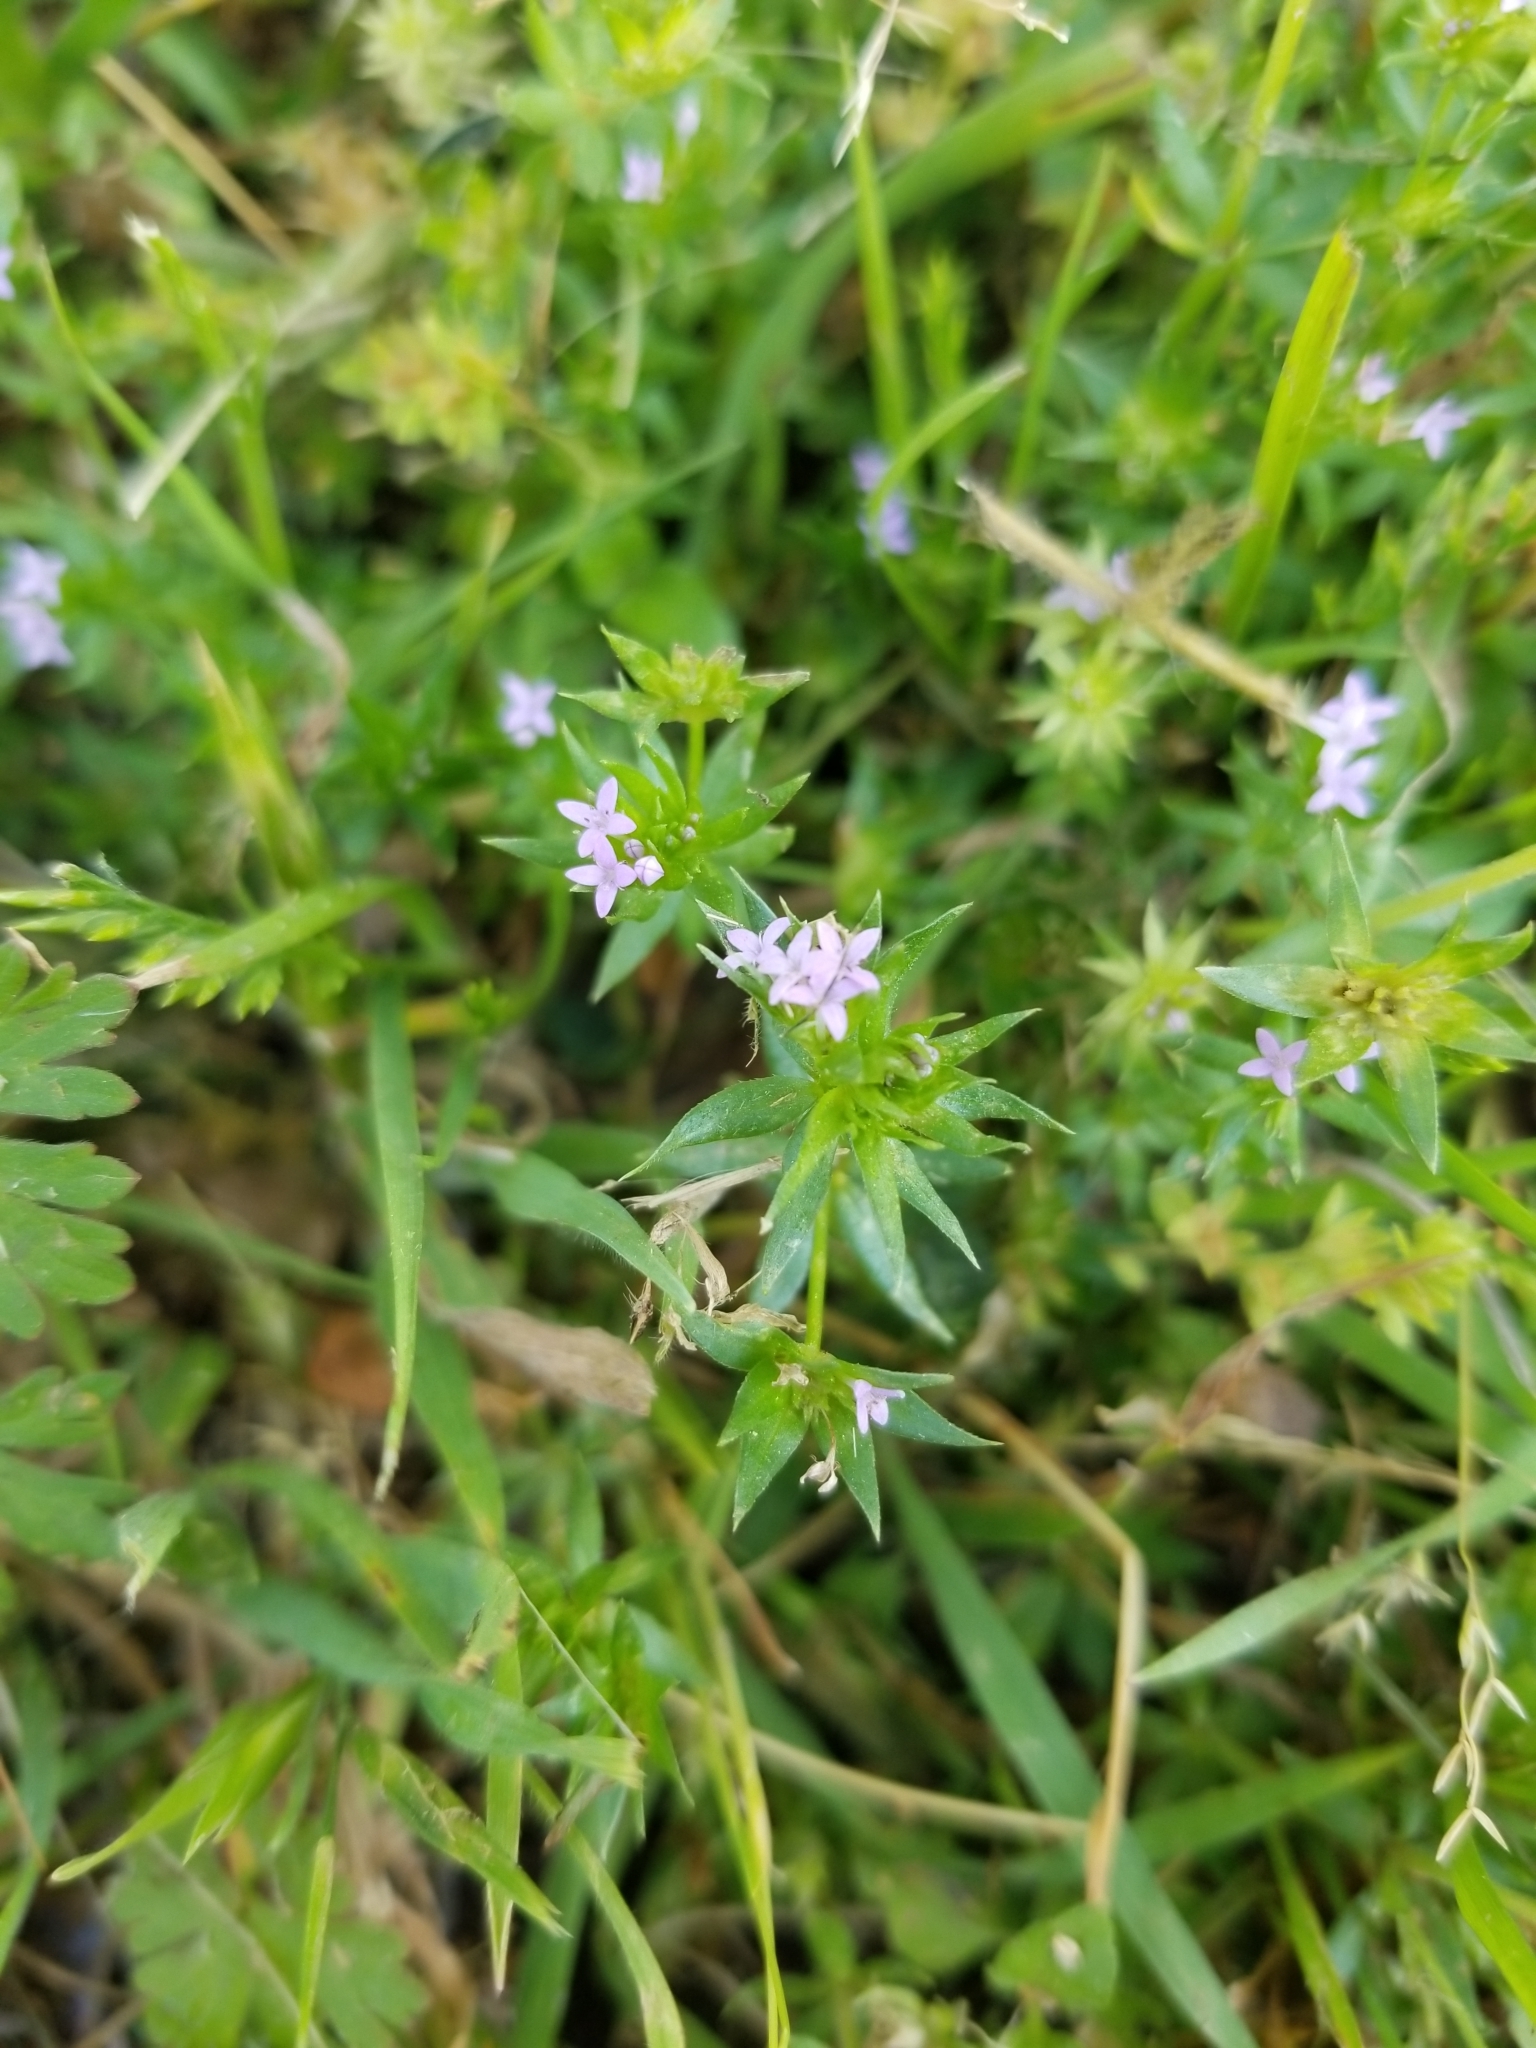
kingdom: Plantae
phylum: Tracheophyta
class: Magnoliopsida
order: Gentianales
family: Rubiaceae
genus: Sherardia
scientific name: Sherardia arvensis
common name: Field madder
